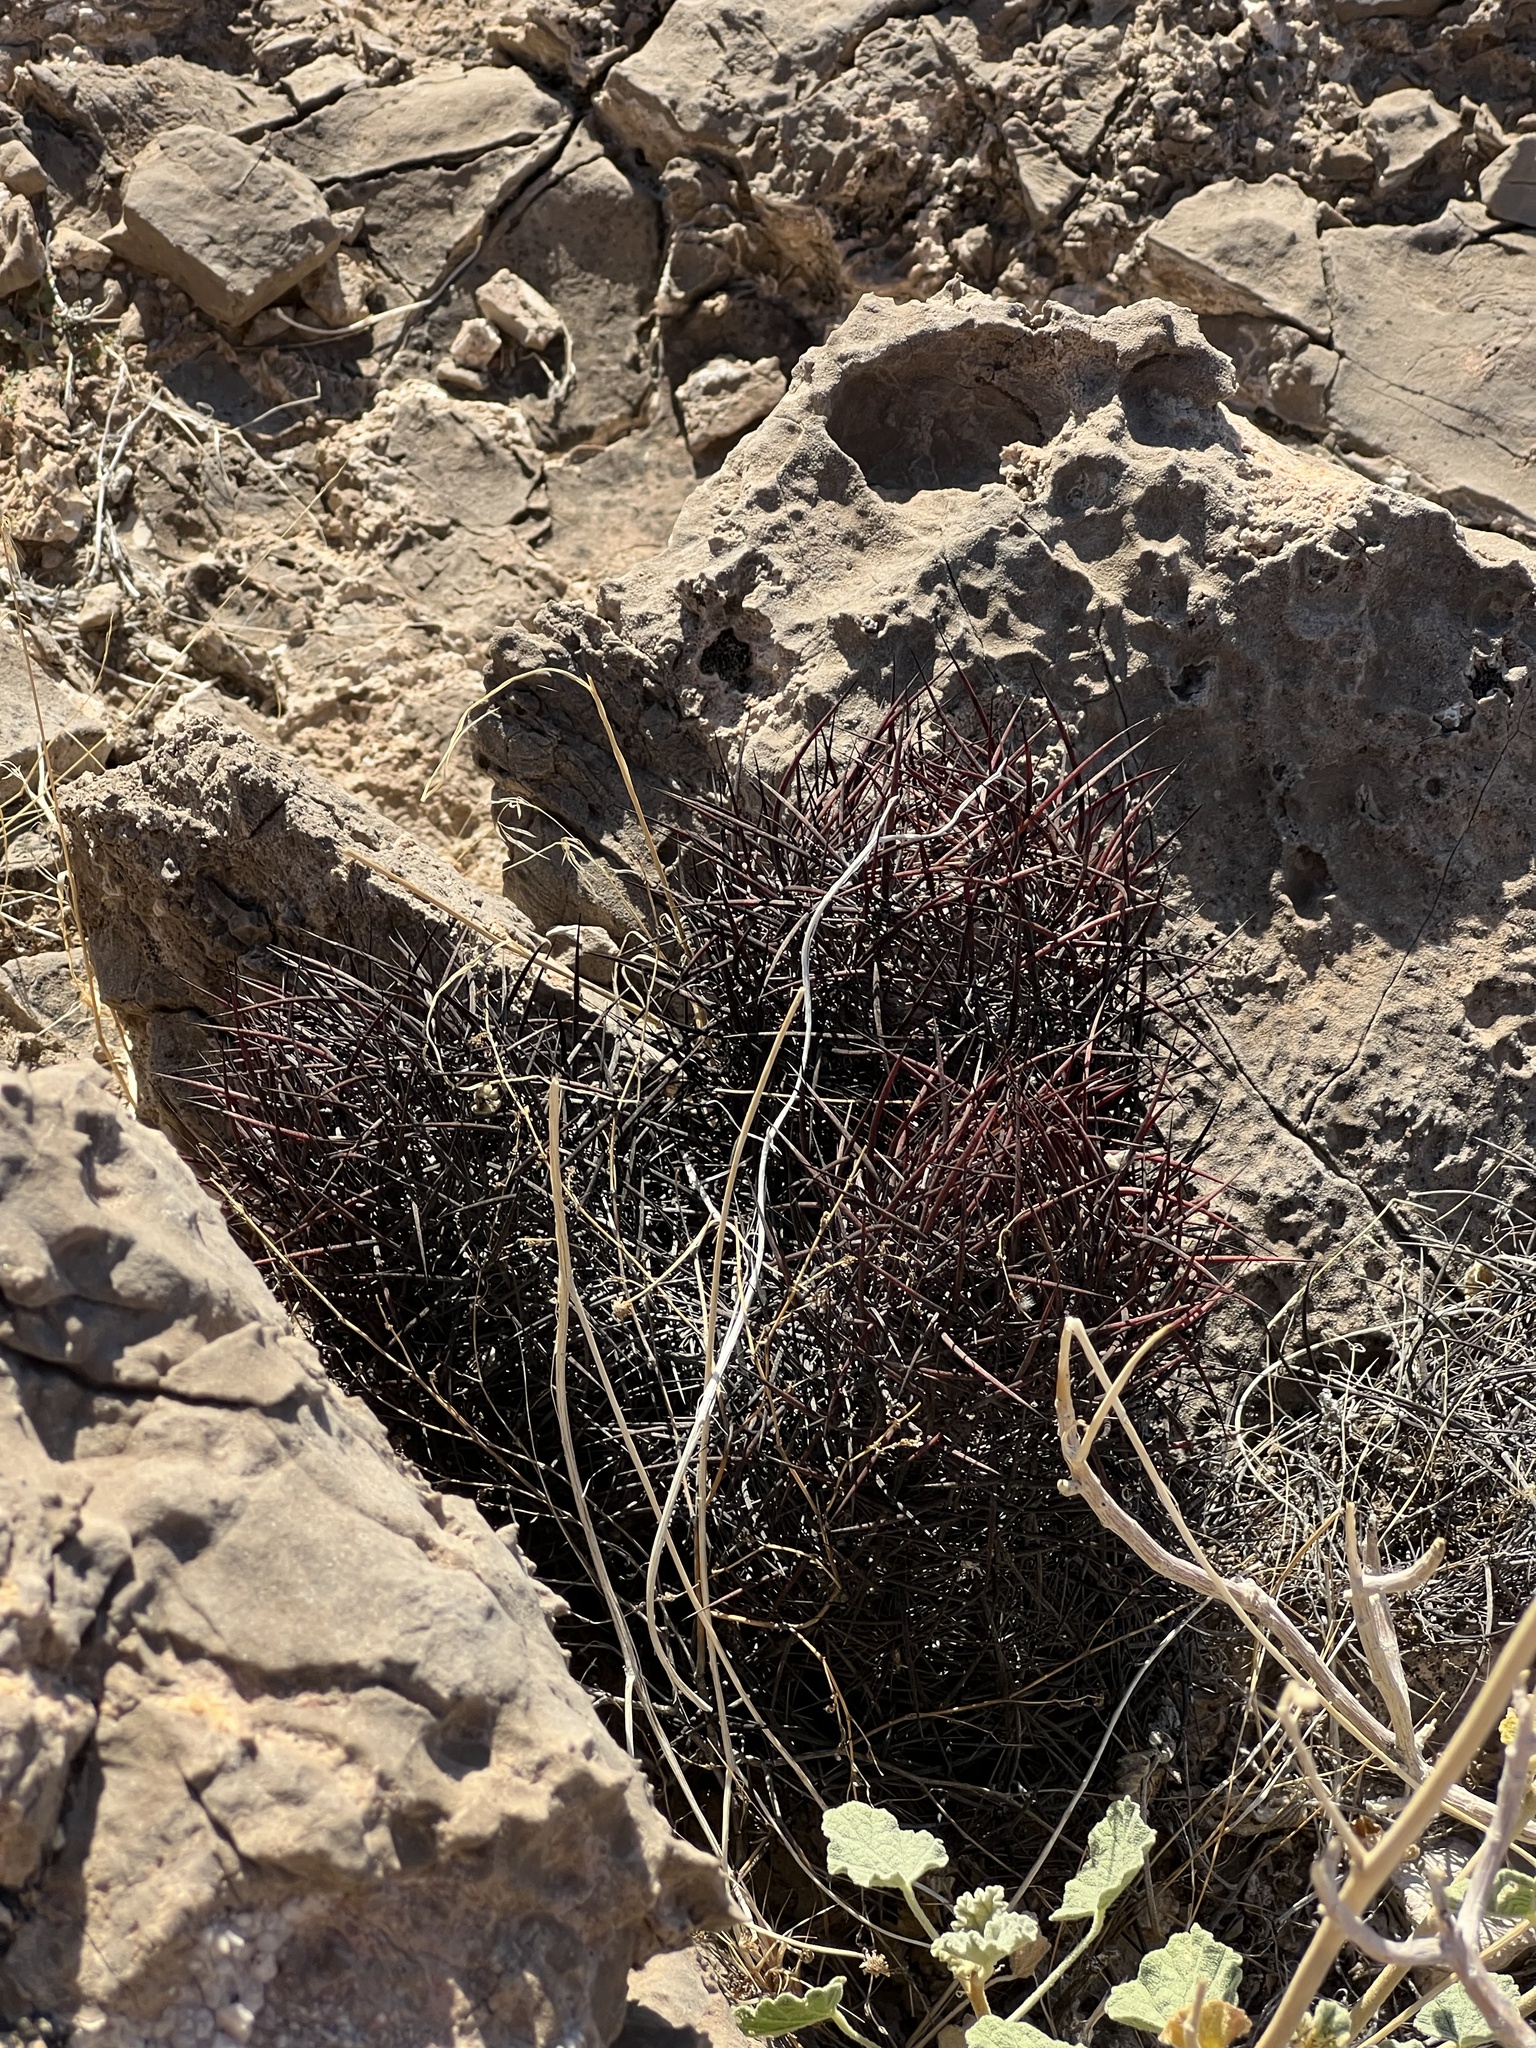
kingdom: Plantae
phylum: Tracheophyta
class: Magnoliopsida
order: Caryophyllales
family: Cactaceae
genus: Sclerocactus
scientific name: Sclerocactus johnsonii
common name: Eight-spine fishhook cactus
